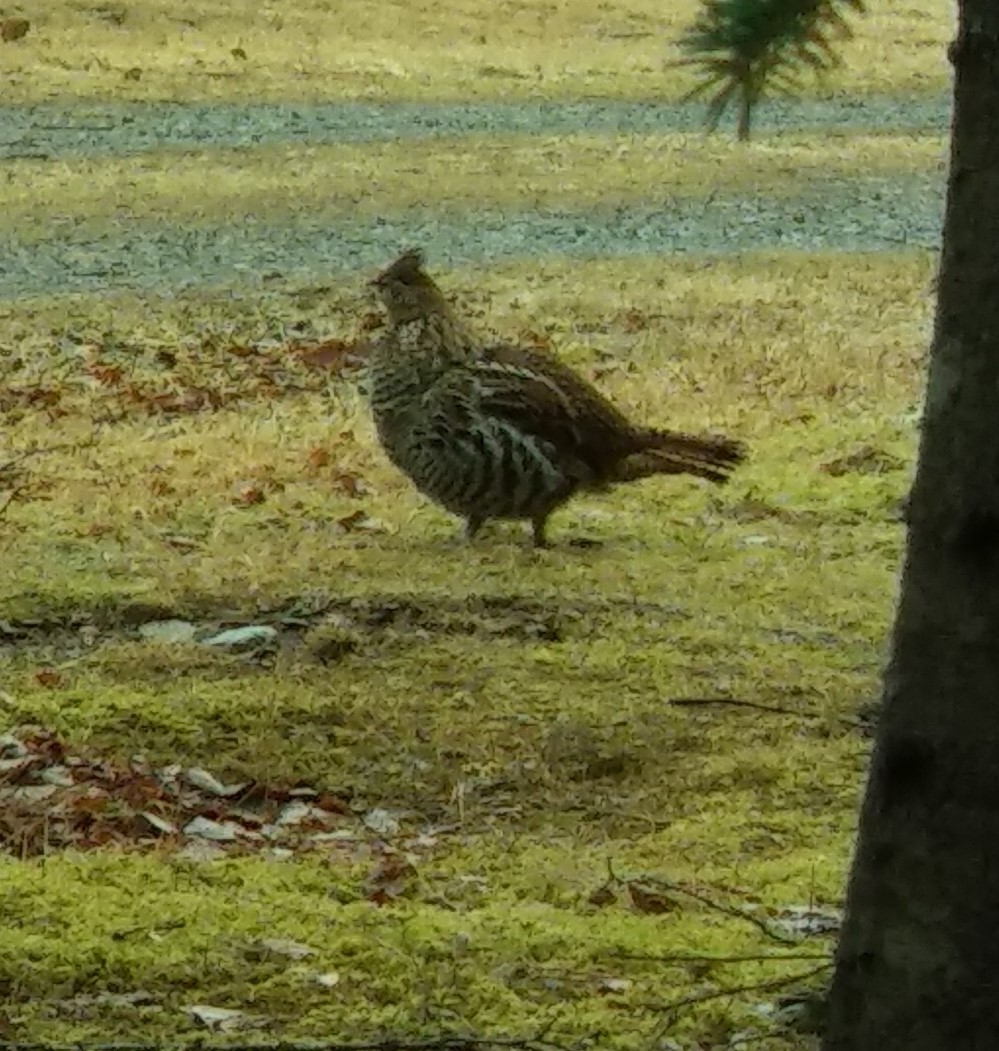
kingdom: Animalia
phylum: Chordata
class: Aves
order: Galliformes
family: Phasianidae
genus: Bonasa
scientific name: Bonasa umbellus
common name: Ruffed grouse
